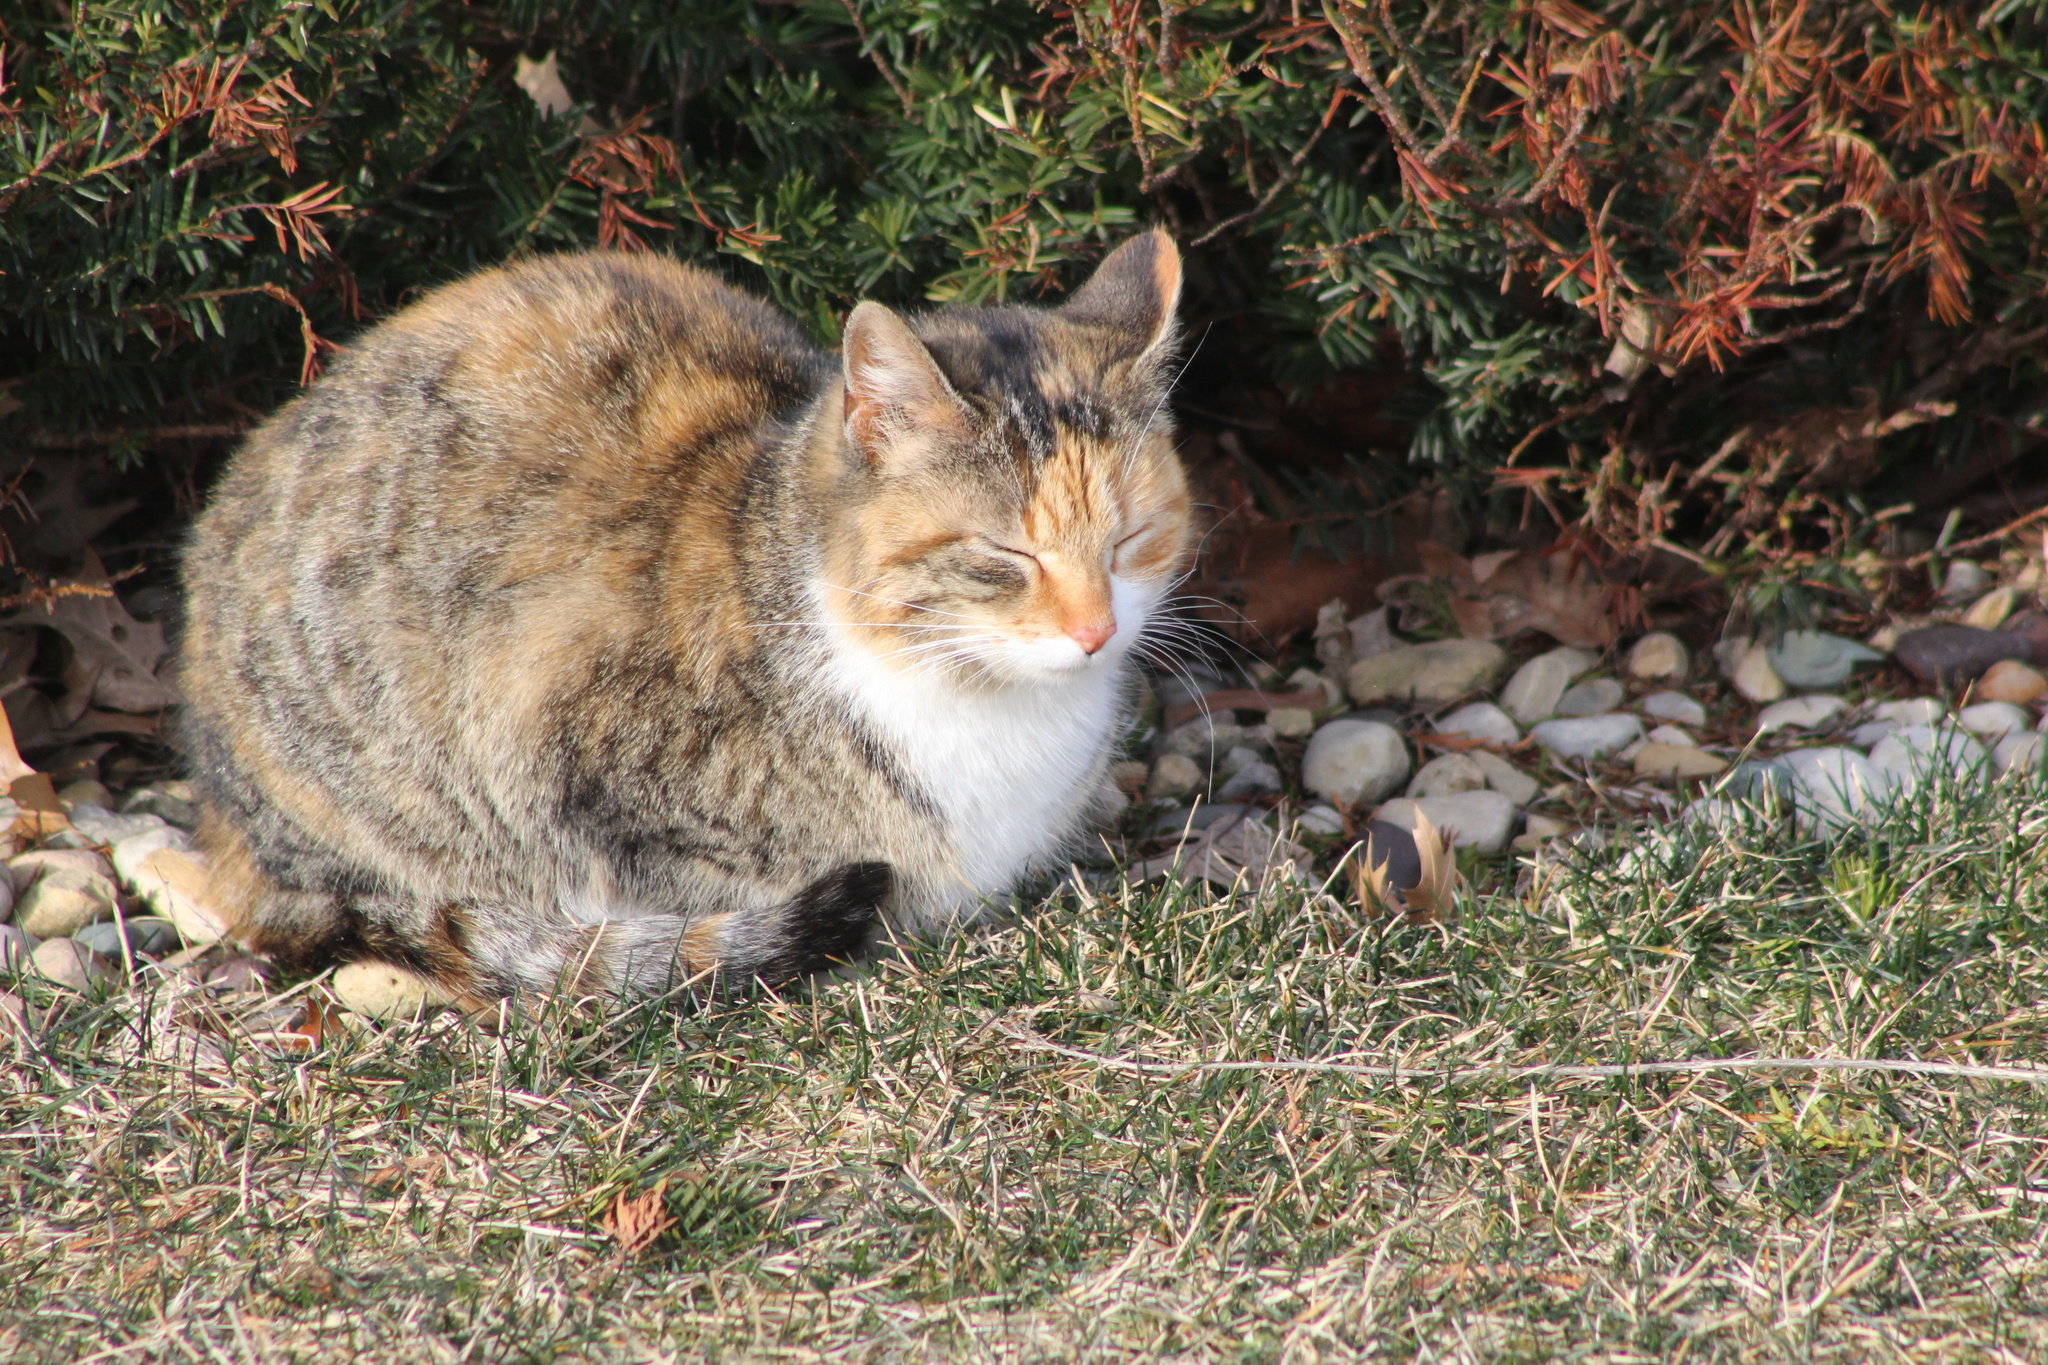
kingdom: Animalia
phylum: Chordata
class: Mammalia
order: Carnivora
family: Felidae
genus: Felis
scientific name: Felis catus
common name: Domestic cat
